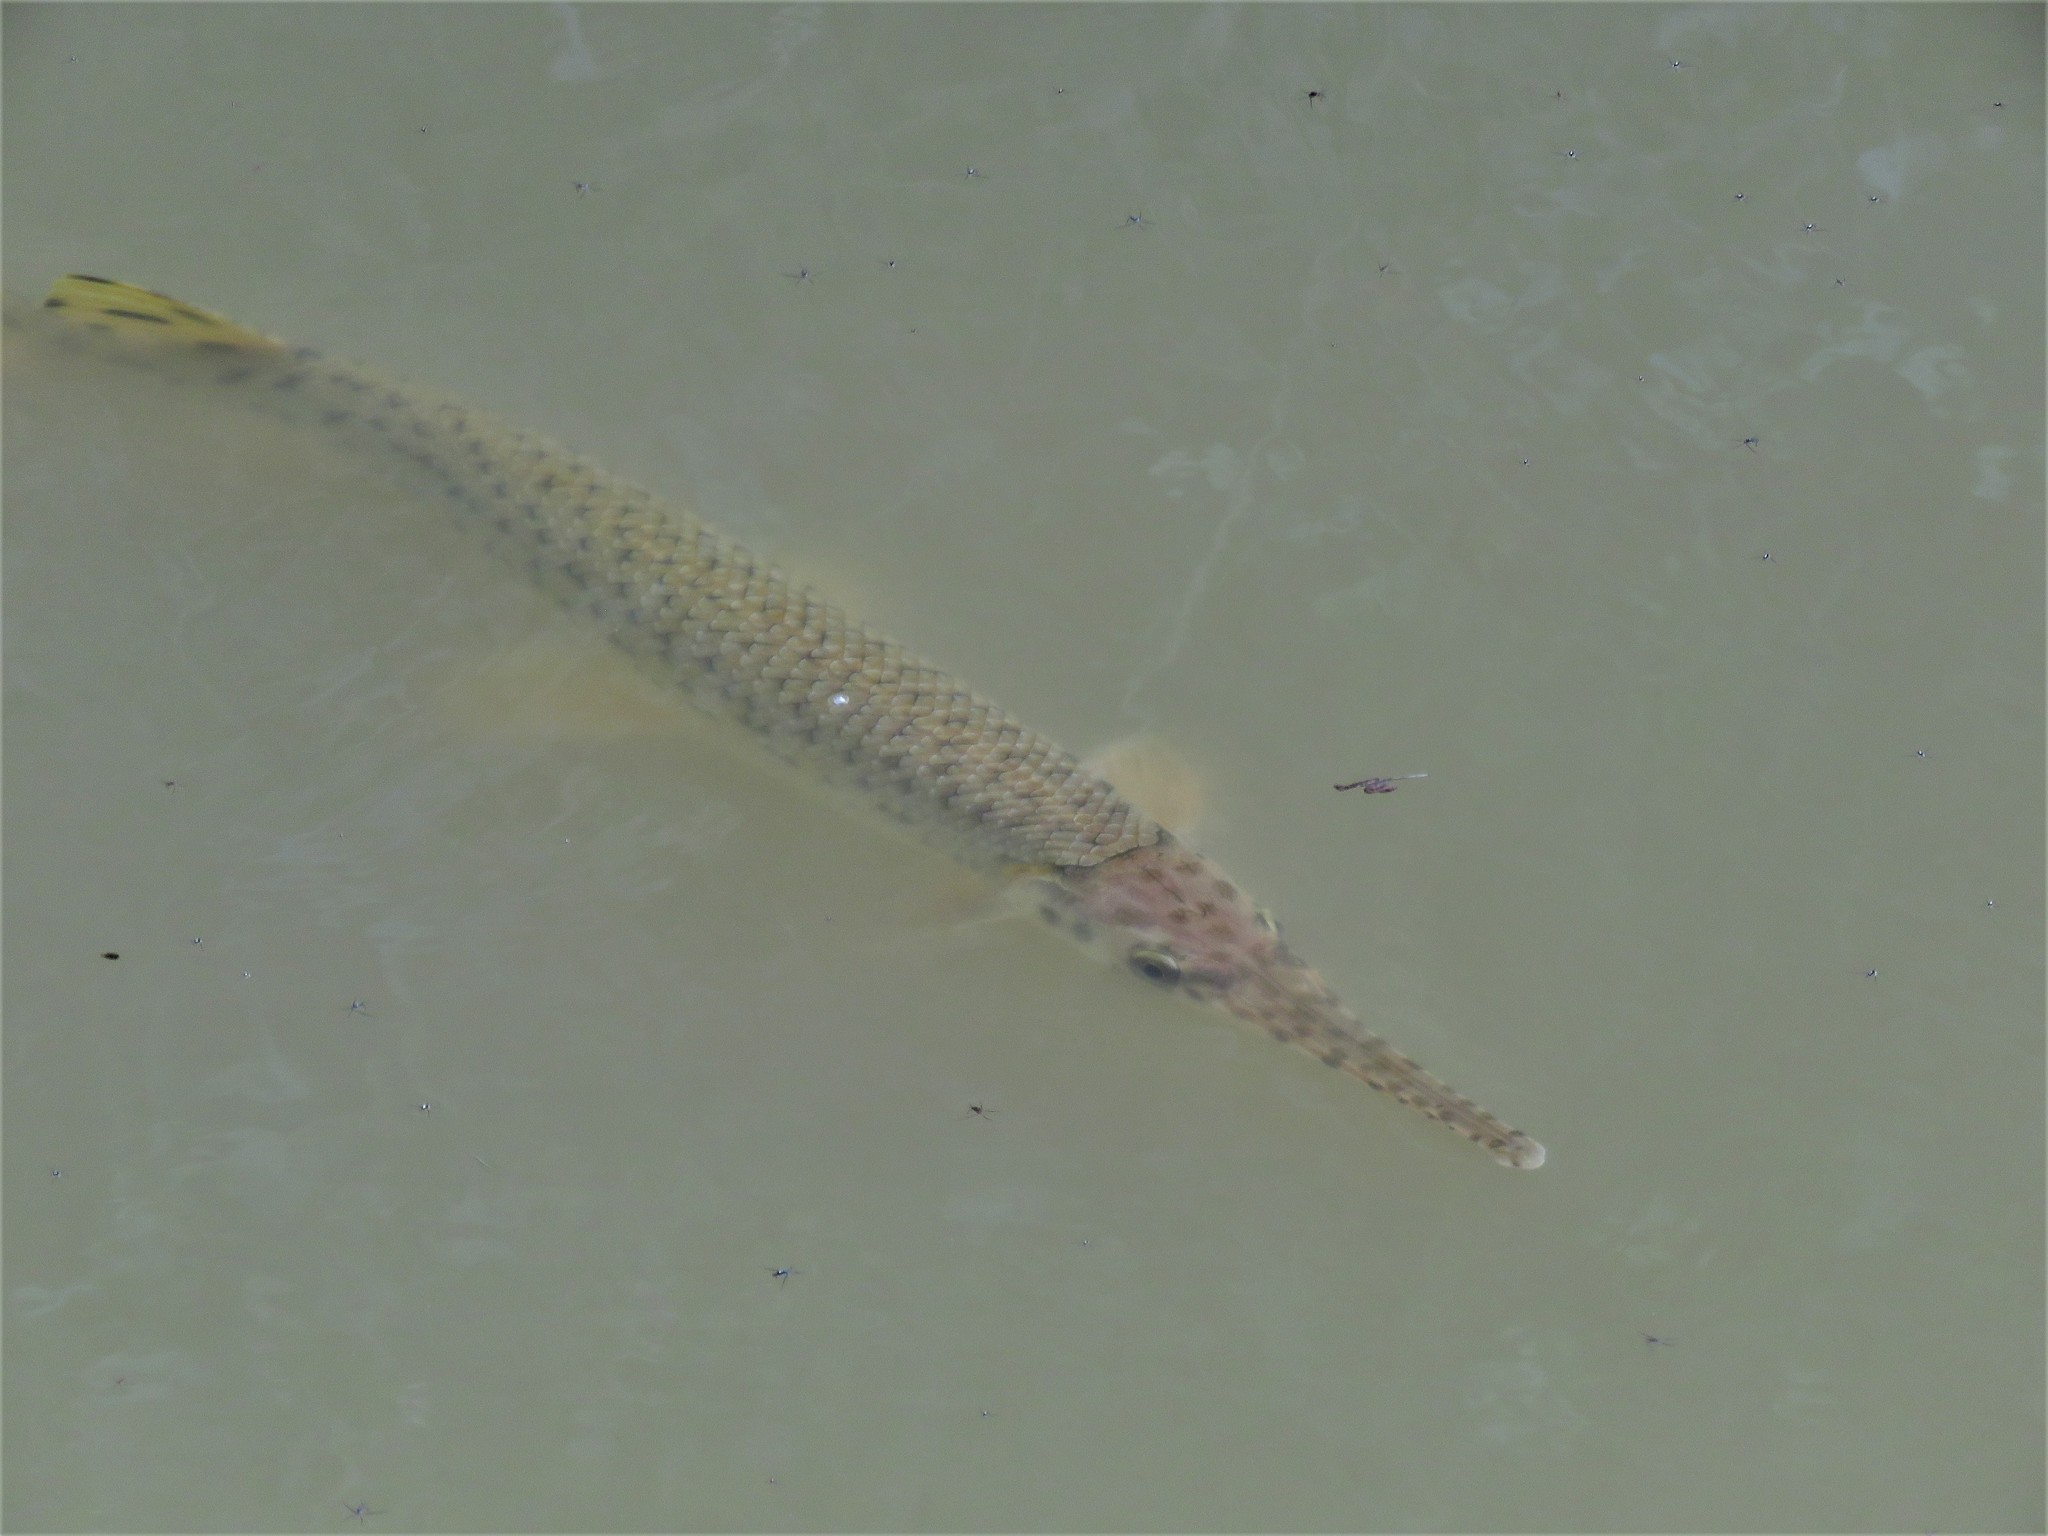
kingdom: Animalia
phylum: Chordata
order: Lepisosteiformes
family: Lepisosteidae
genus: Lepisosteus
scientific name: Lepisosteus osseus
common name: Longnose gar
